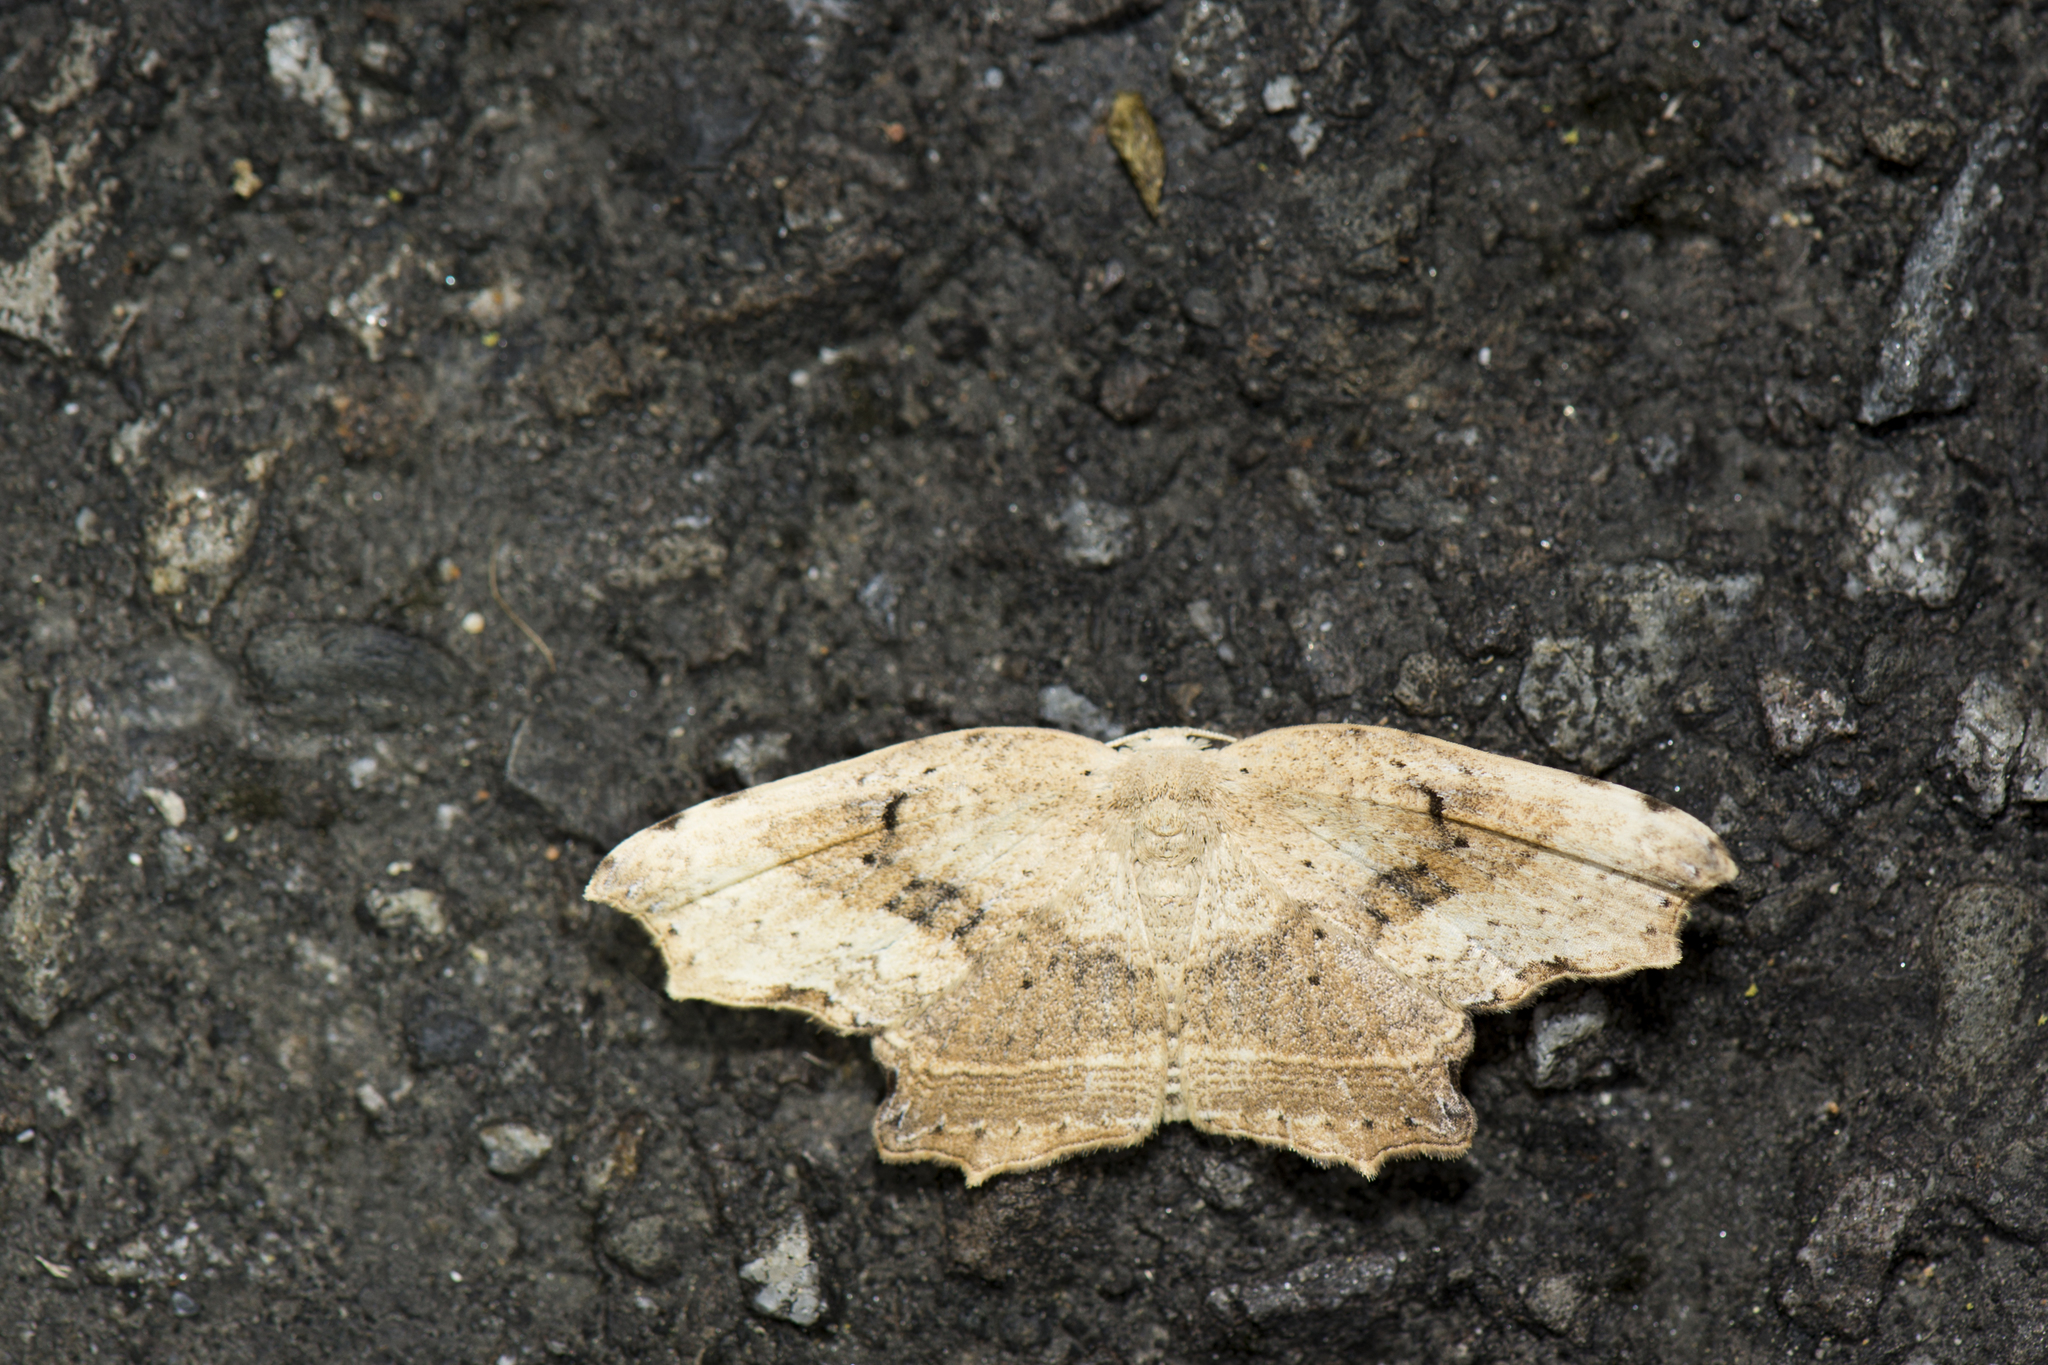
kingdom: Animalia
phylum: Arthropoda
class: Insecta
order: Lepidoptera
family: Drepanidae
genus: Phalacra
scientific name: Phalacra strigata
